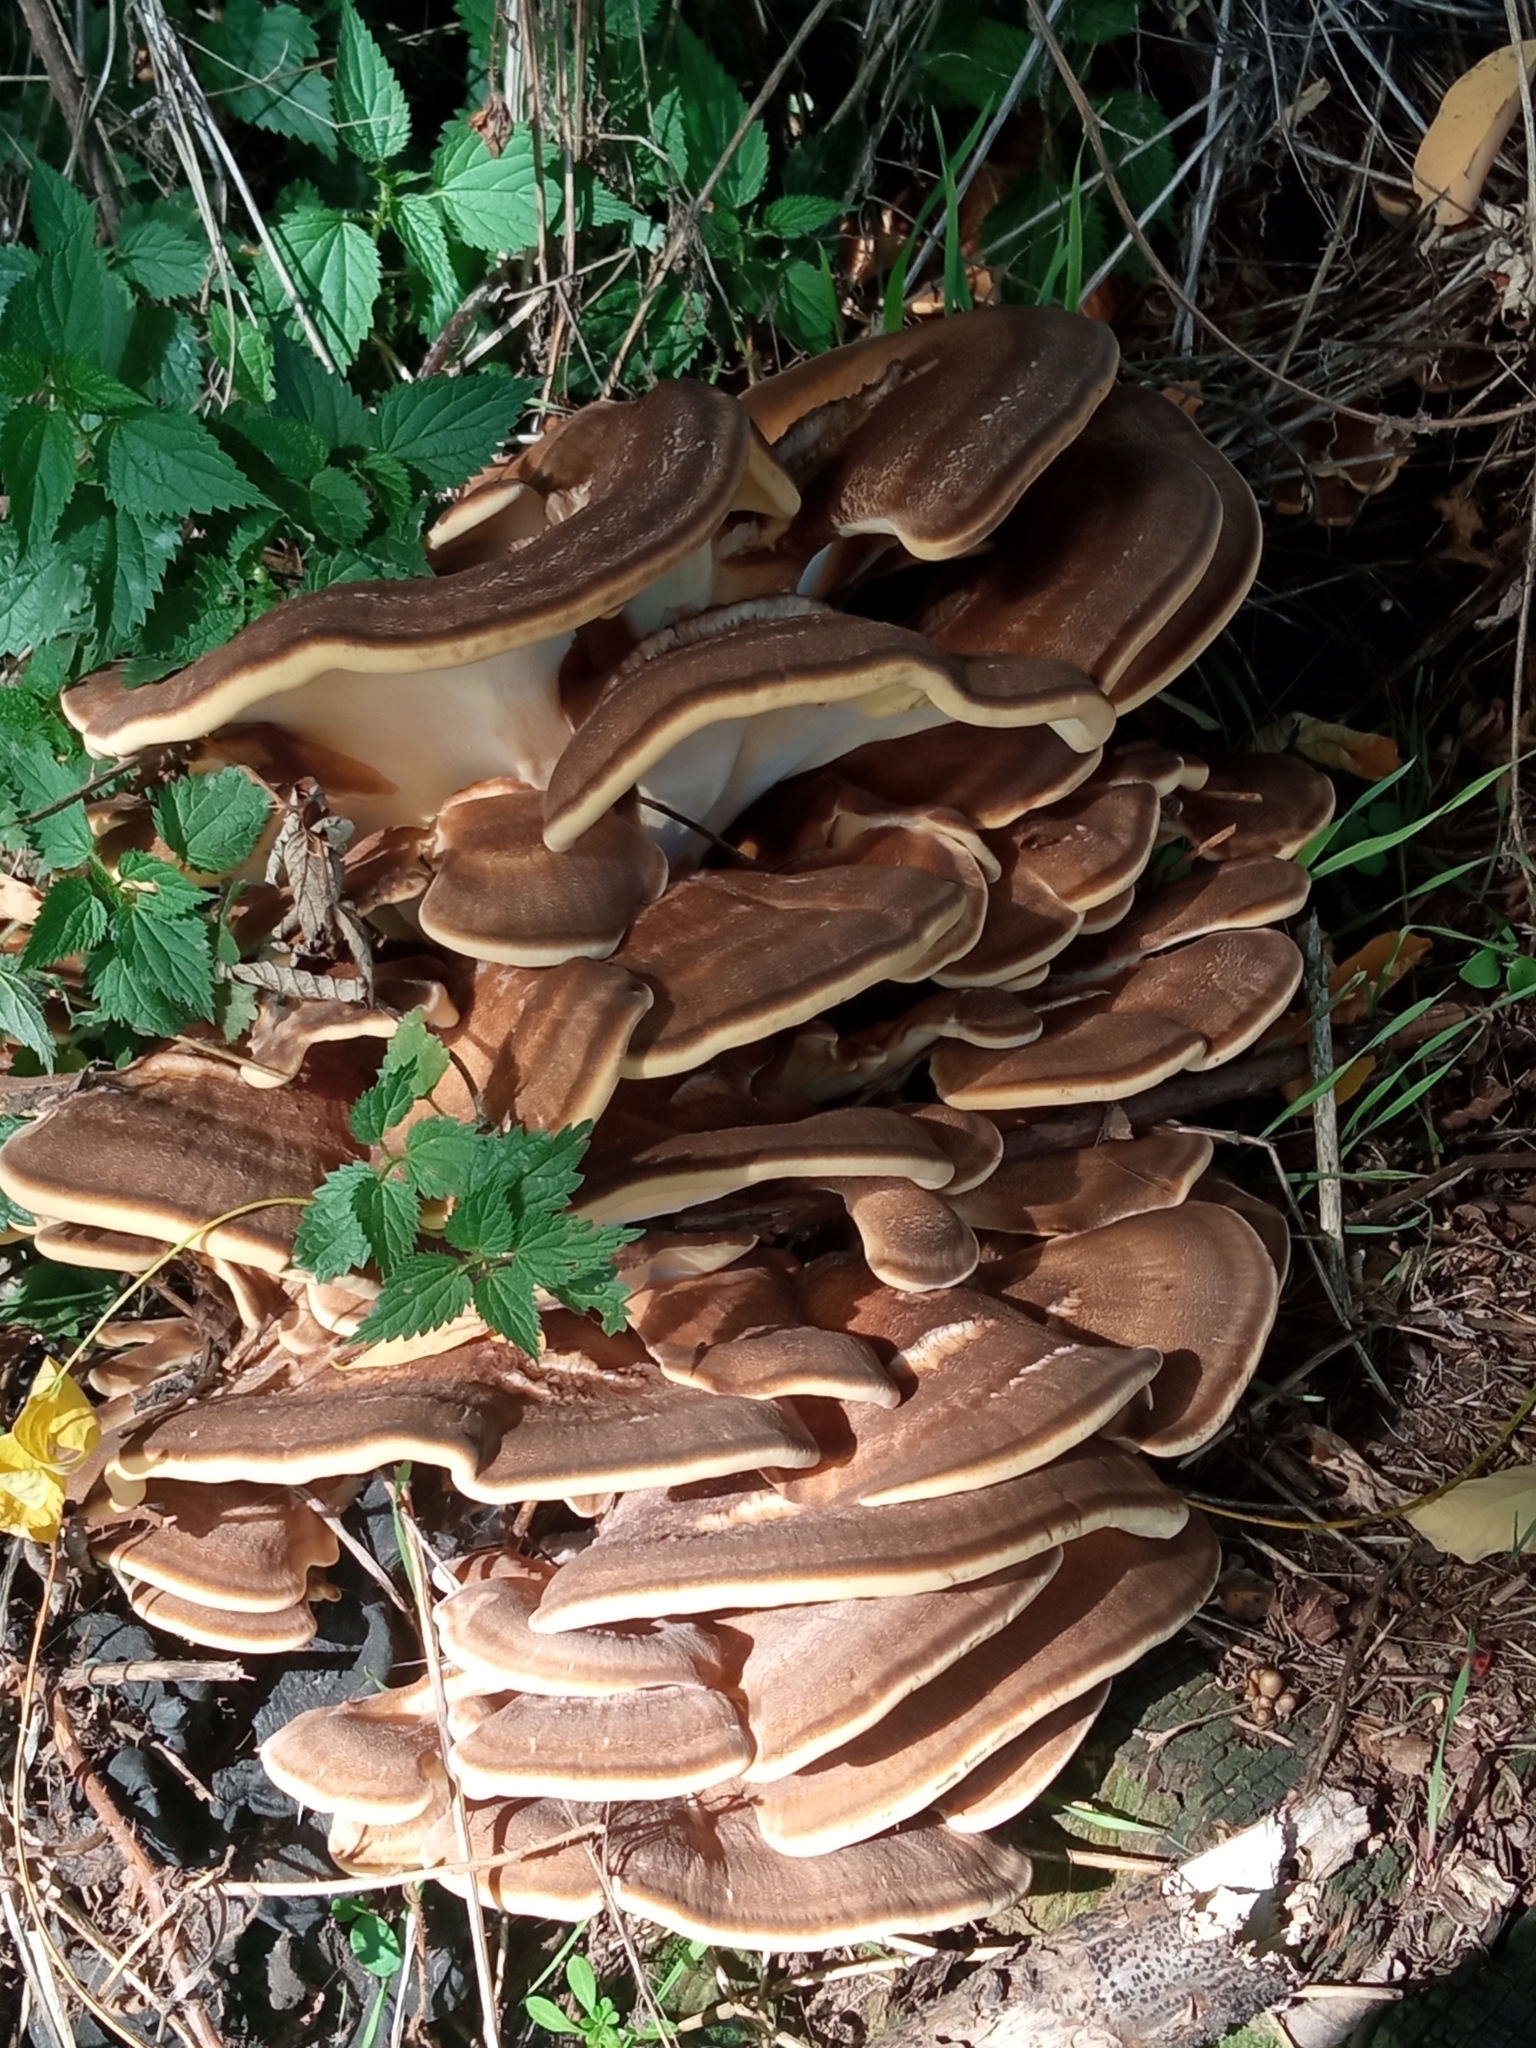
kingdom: Fungi
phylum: Basidiomycota
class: Agaricomycetes
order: Polyporales
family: Meripilaceae
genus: Meripilus
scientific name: Meripilus giganteus
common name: Giant polypore
